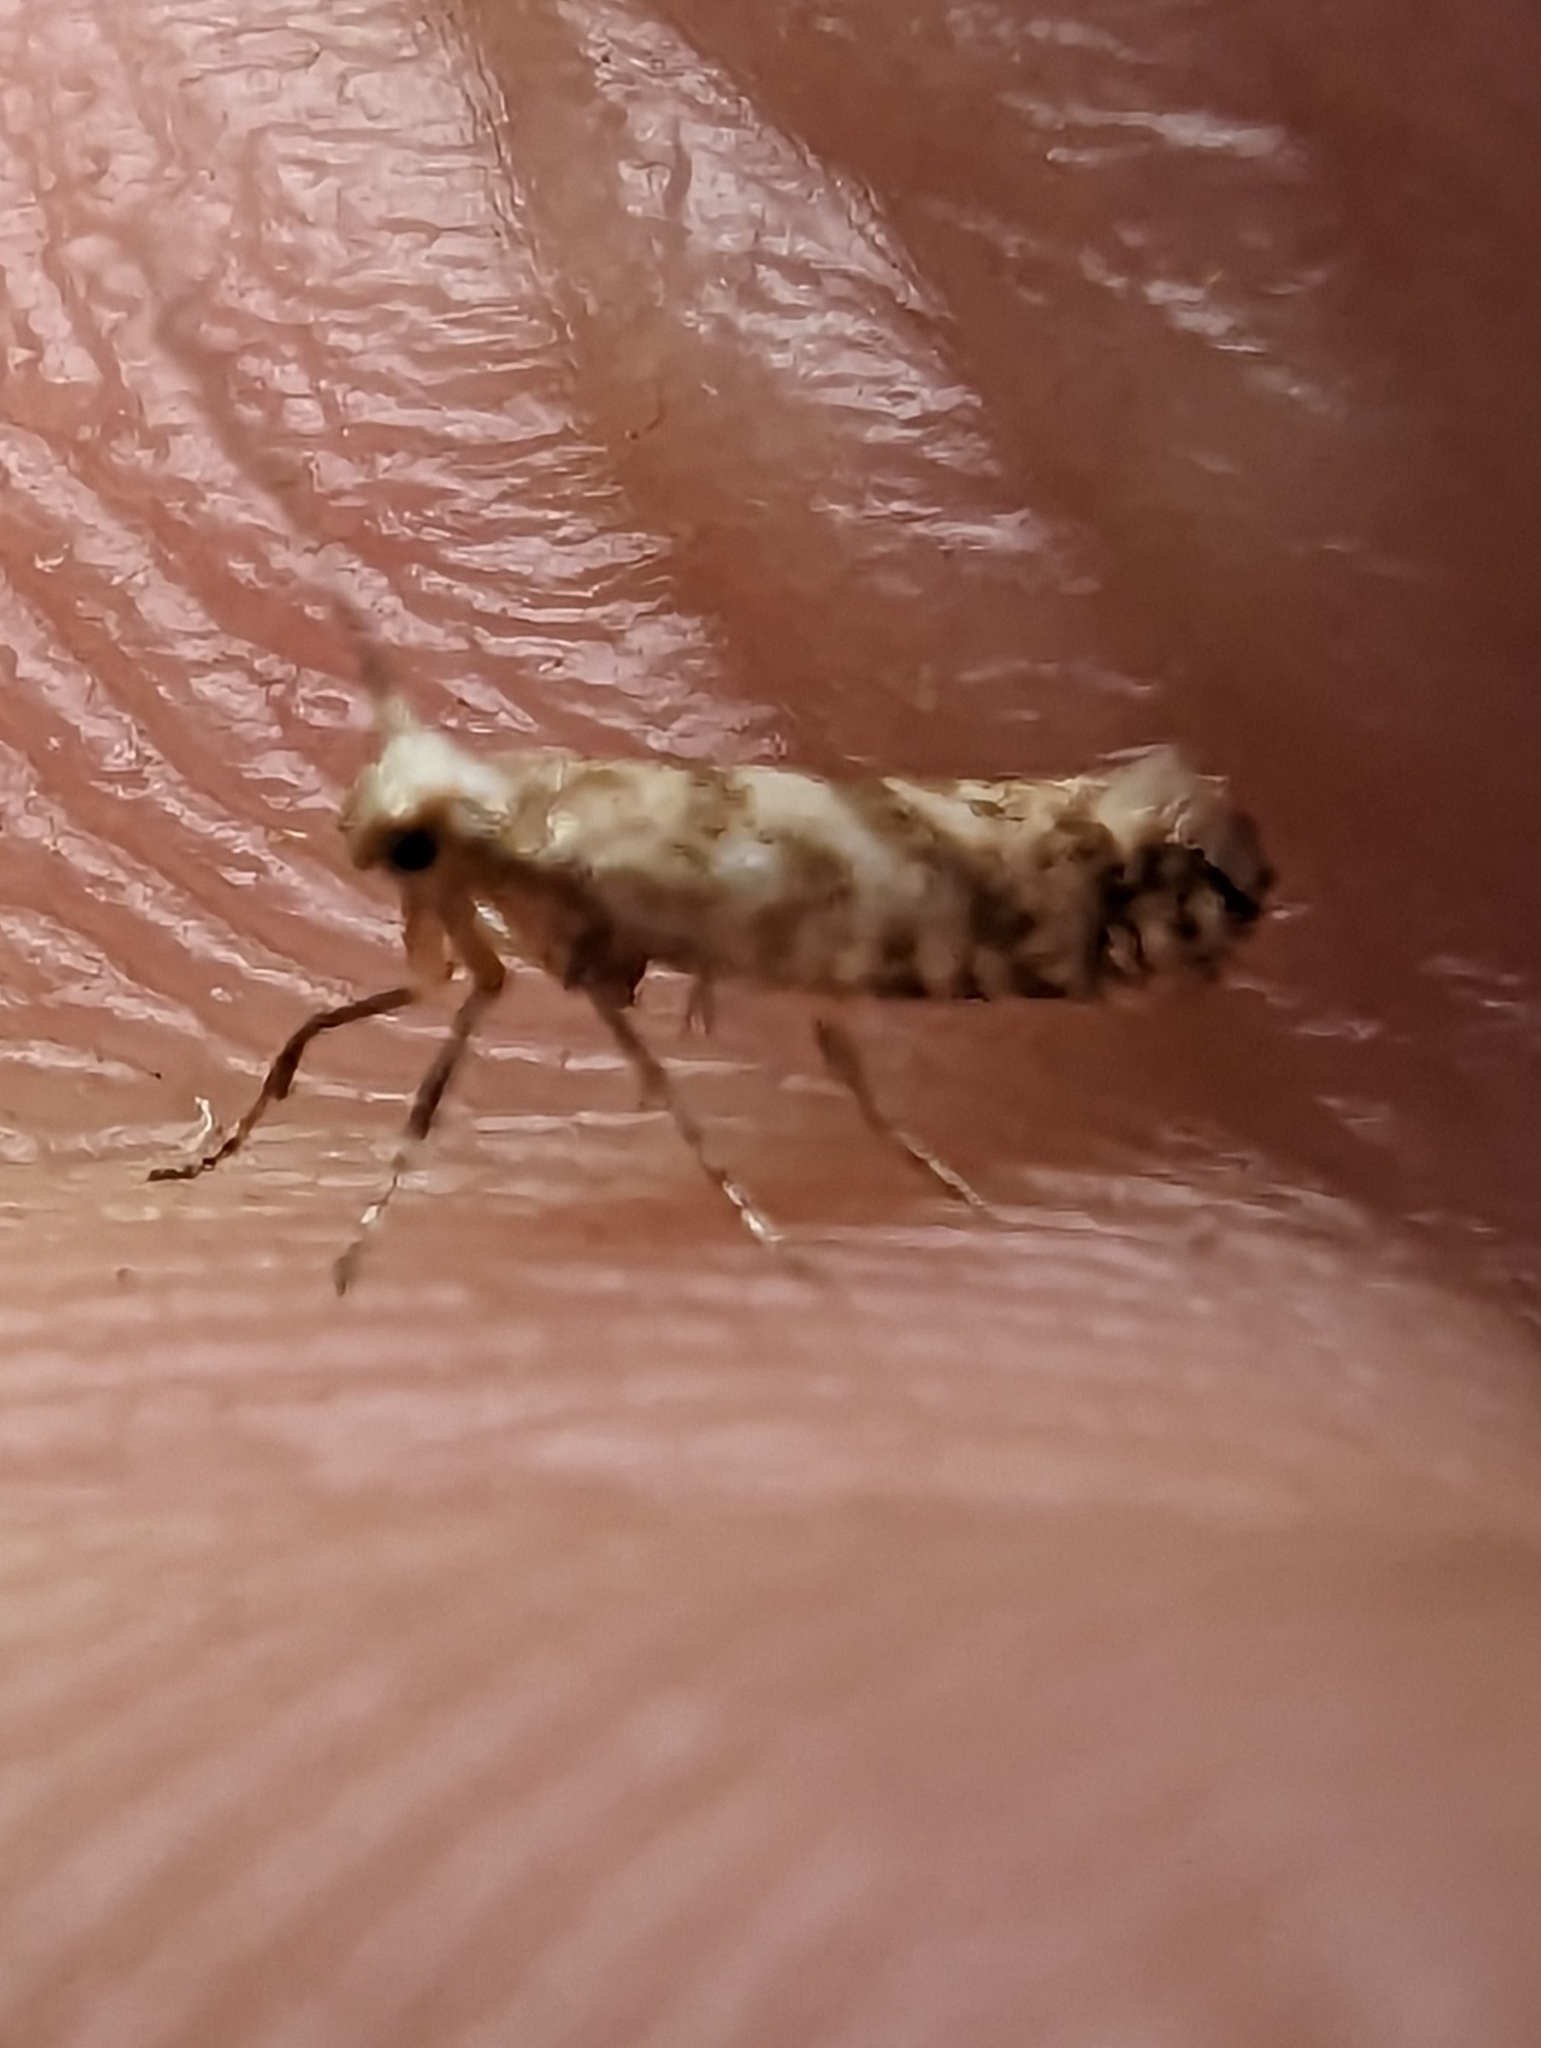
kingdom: Animalia
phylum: Arthropoda
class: Insecta
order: Lepidoptera
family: Argyresthiidae
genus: Argyresthia
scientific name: Argyresthia cupressella
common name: Cypress tip moth
